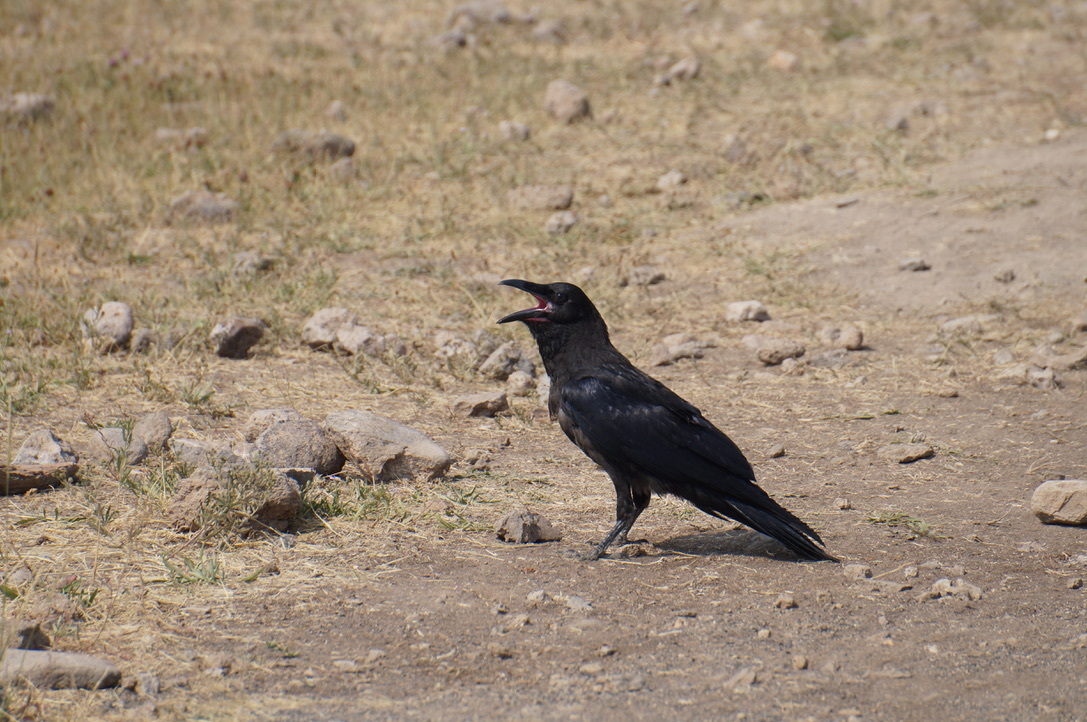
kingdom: Animalia
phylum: Chordata
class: Aves
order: Passeriformes
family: Corvidae
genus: Corvus
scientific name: Corvus corax
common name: Common raven
